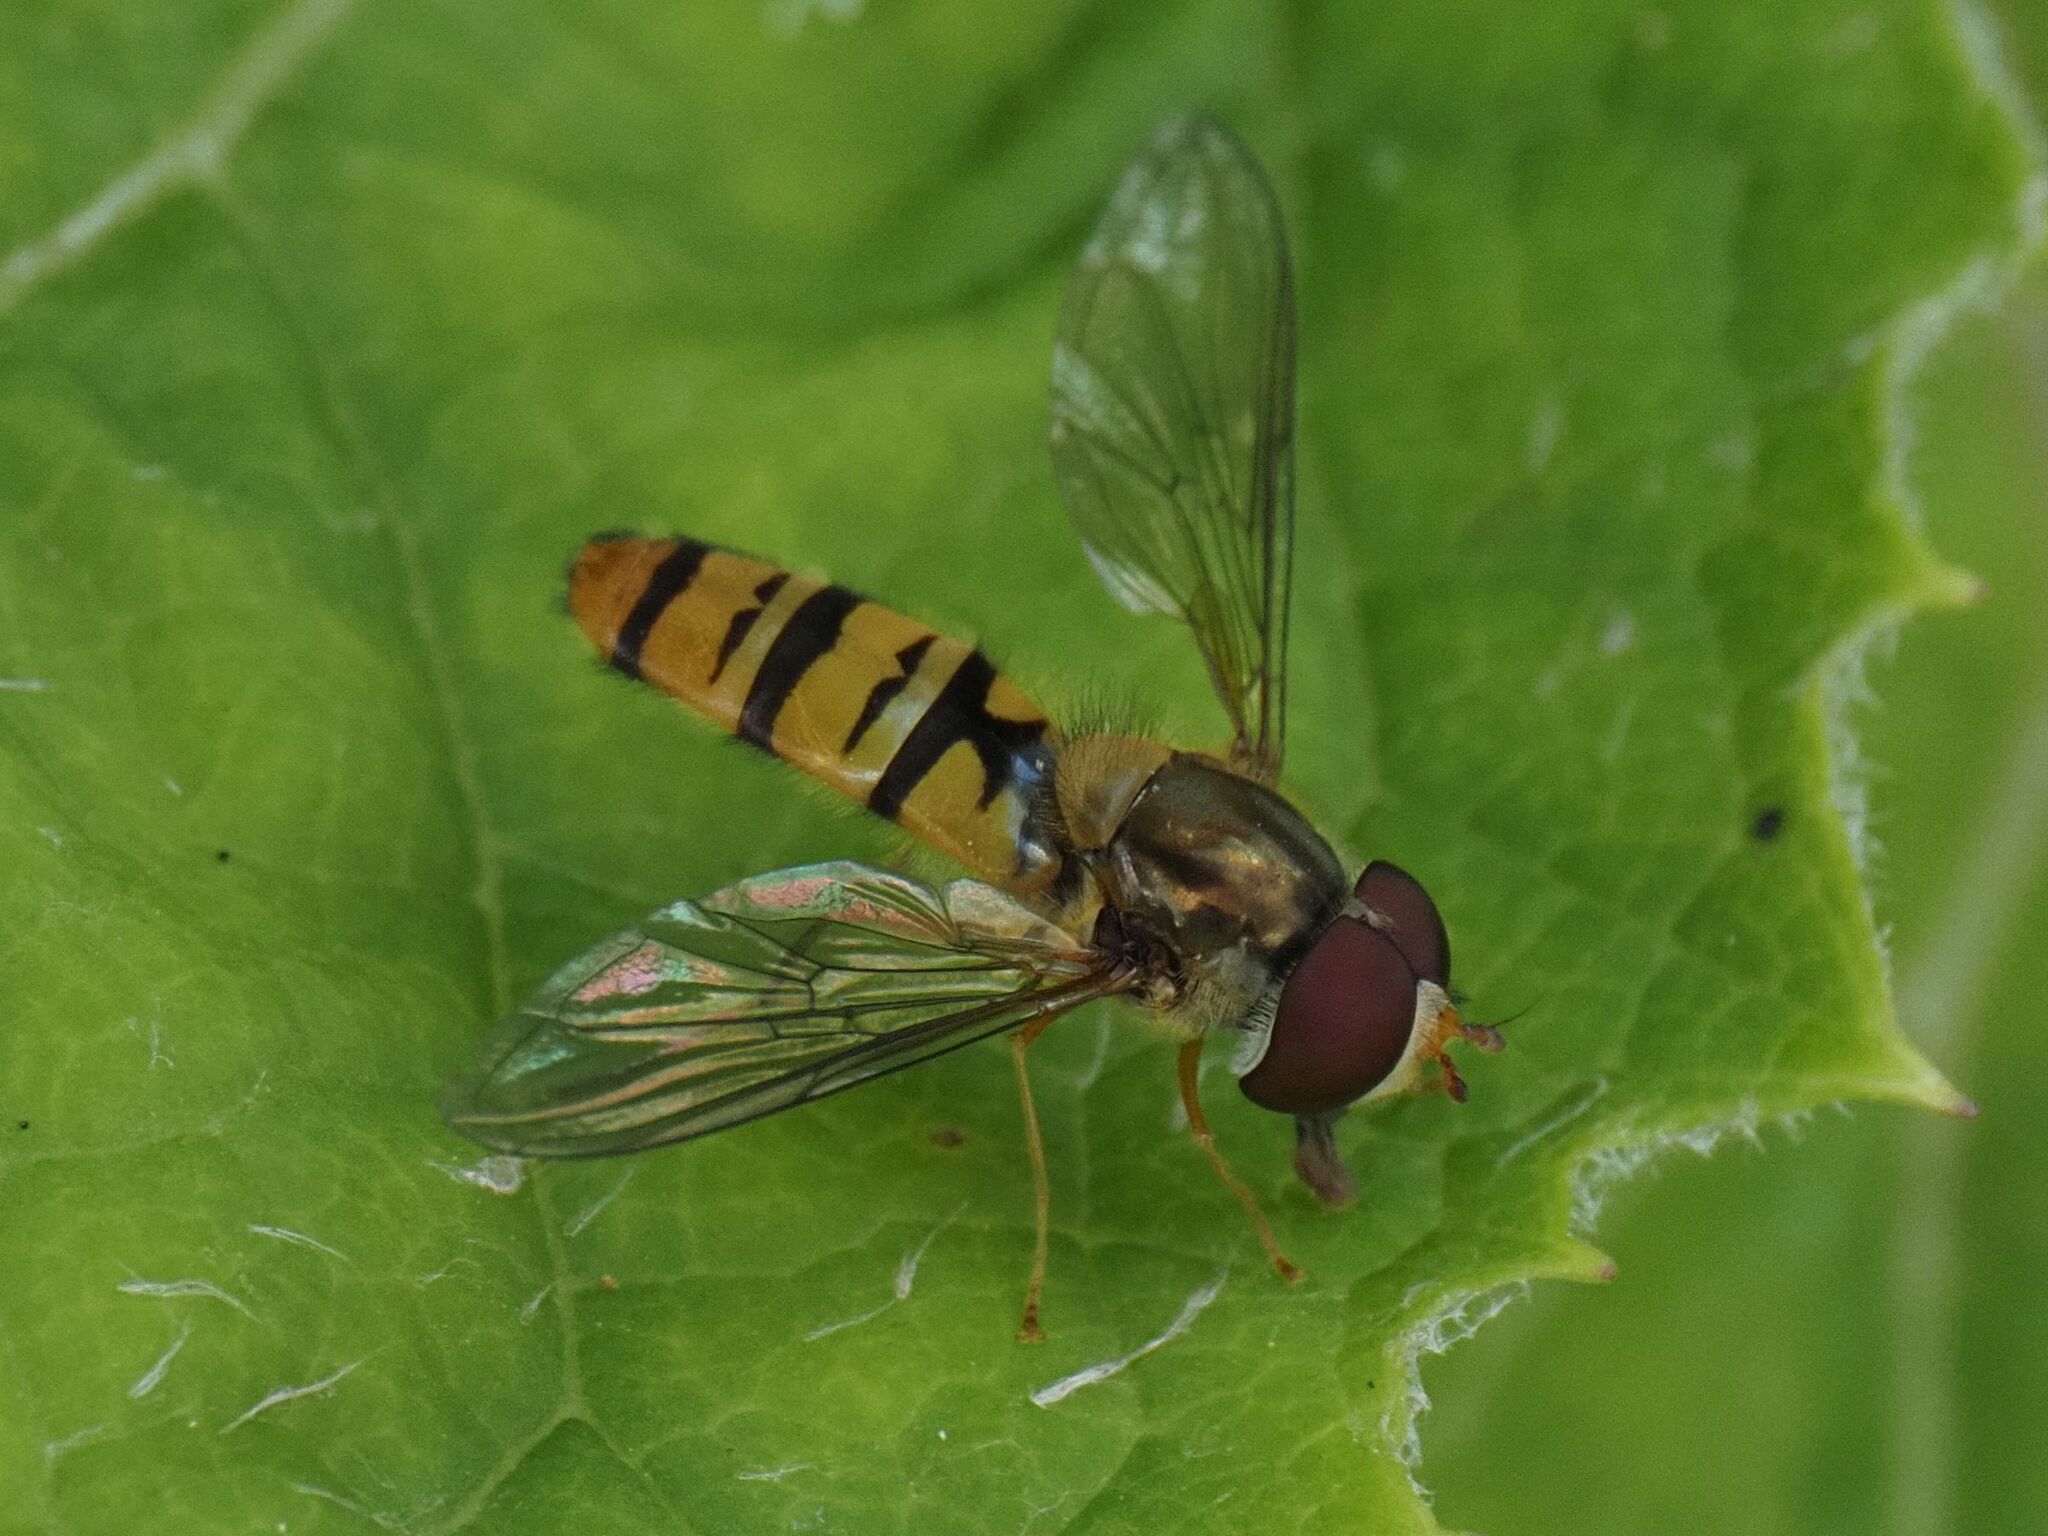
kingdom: Animalia
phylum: Arthropoda
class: Insecta
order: Diptera
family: Syrphidae
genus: Episyrphus
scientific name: Episyrphus balteatus
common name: Marmalade hoverfly
